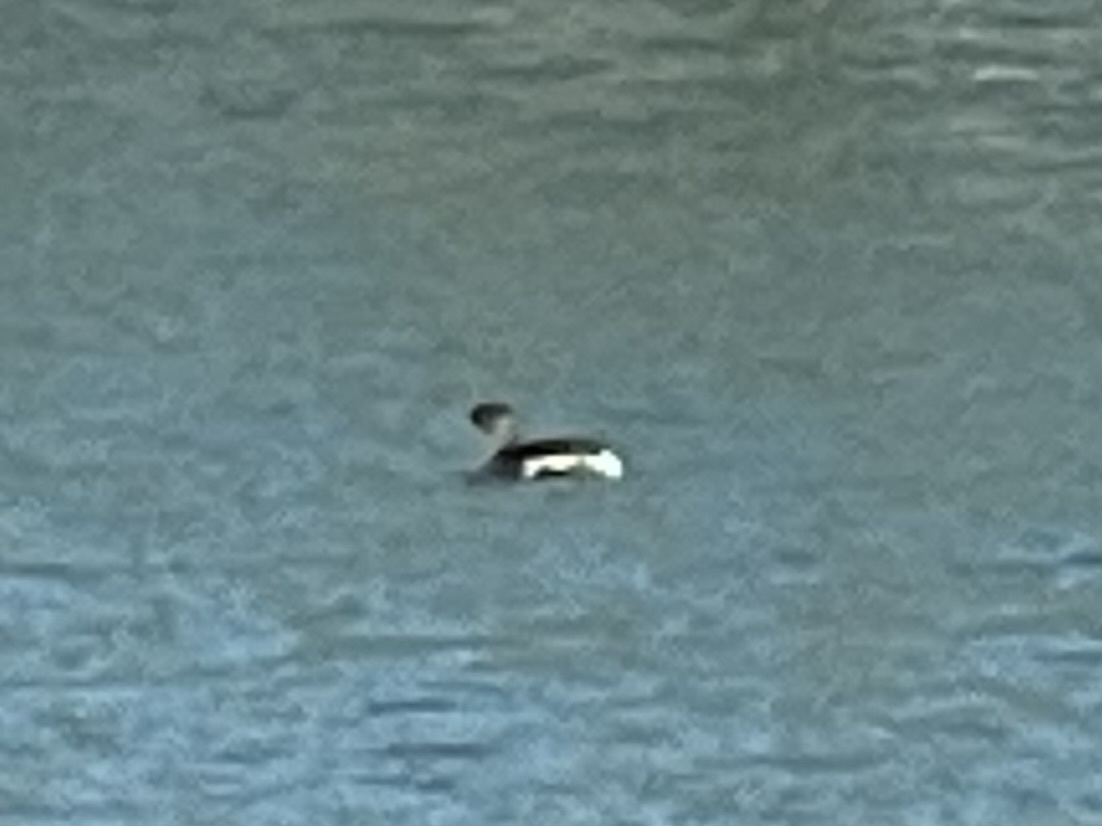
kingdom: Animalia
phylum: Chordata
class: Aves
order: Podicipediformes
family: Podicipedidae
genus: Podilymbus
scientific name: Podilymbus podiceps
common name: Pied-billed grebe
